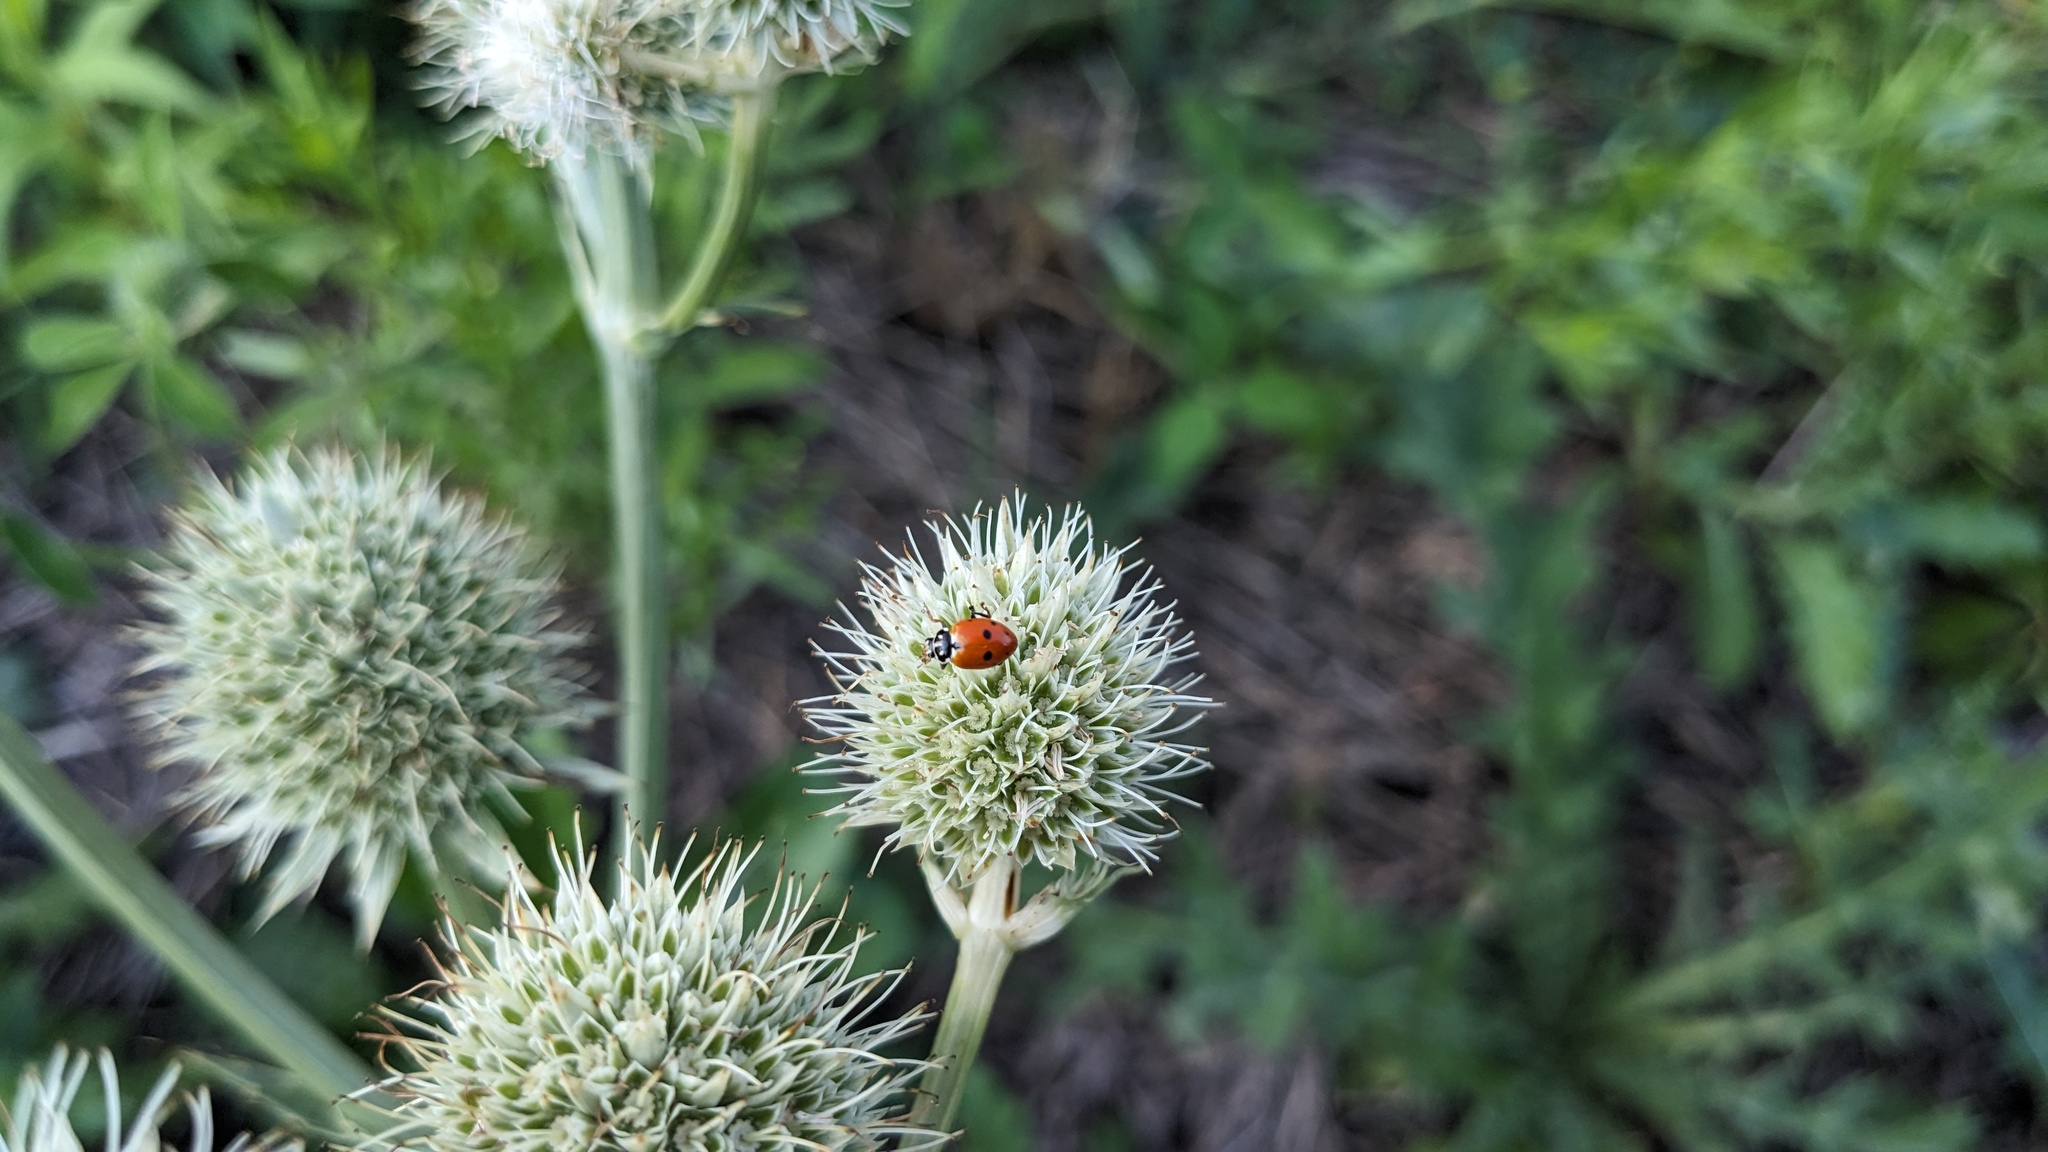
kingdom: Animalia
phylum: Arthropoda
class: Insecta
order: Coleoptera
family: Coccinellidae
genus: Hippodamia
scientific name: Hippodamia variegata
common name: Ladybird beetle
